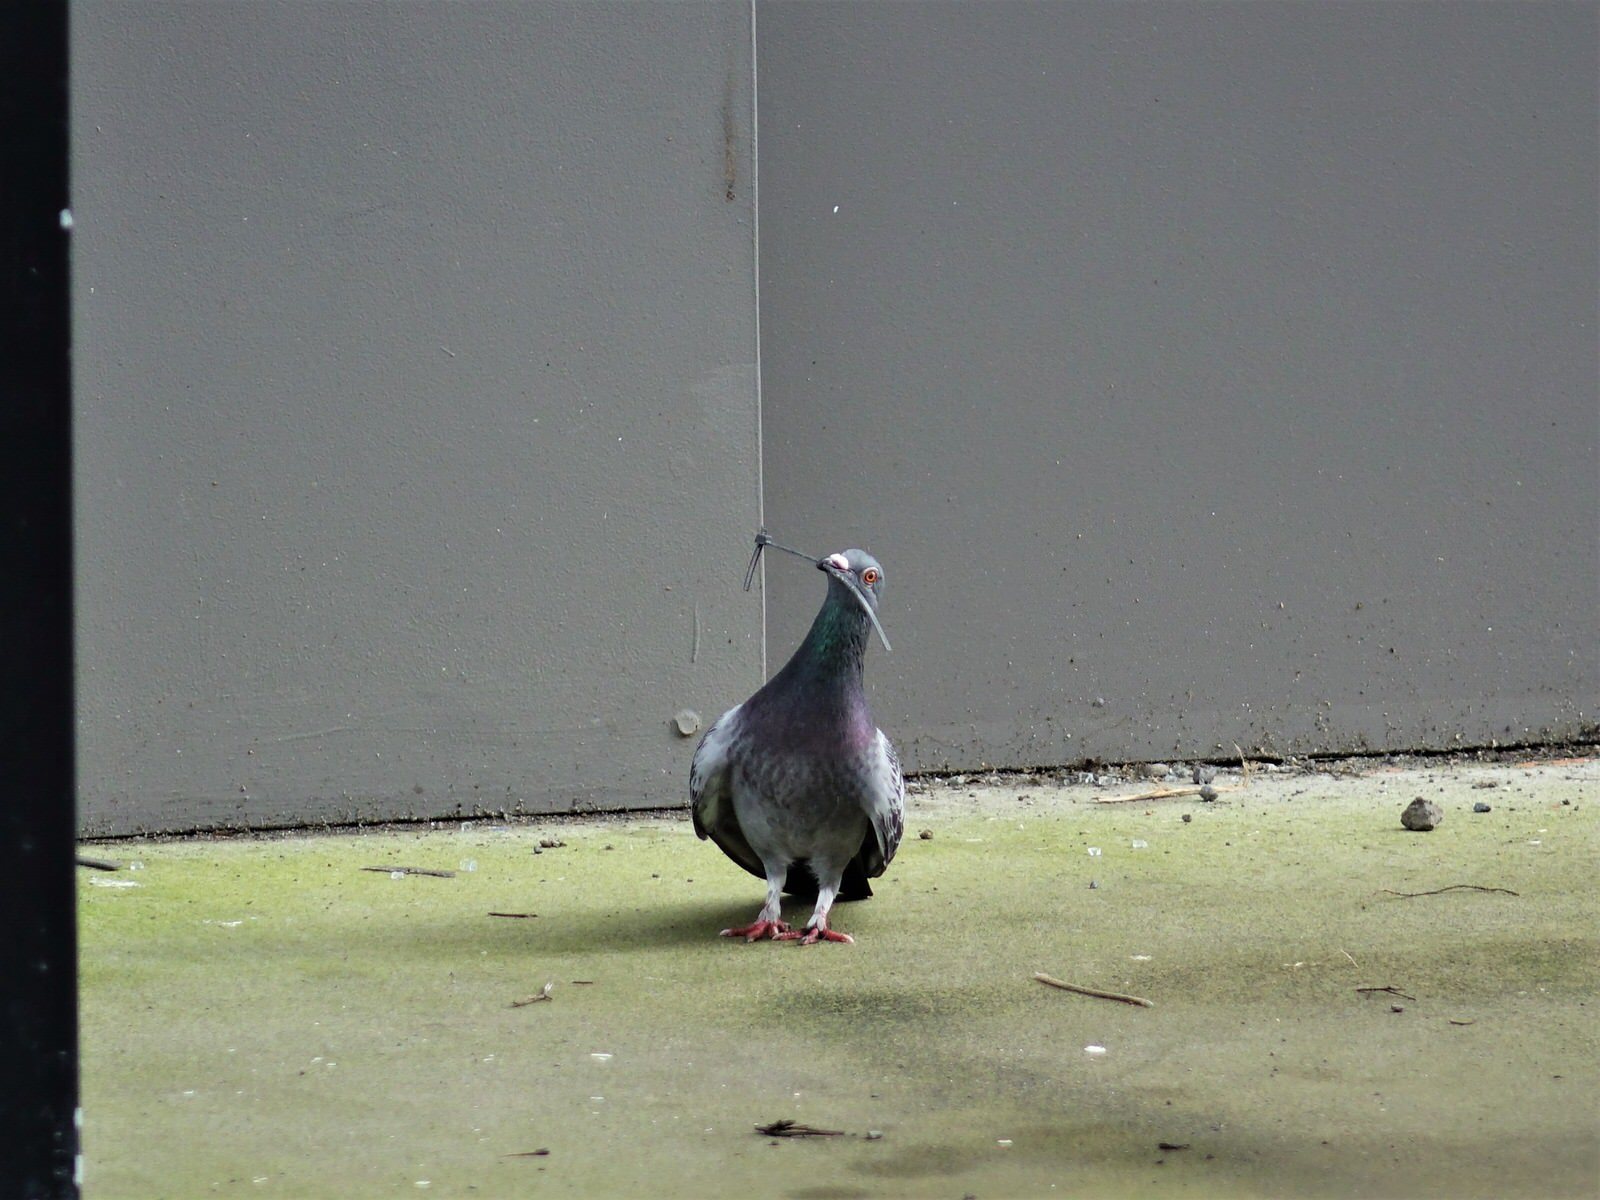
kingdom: Animalia
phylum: Chordata
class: Aves
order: Columbiformes
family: Columbidae
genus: Columba
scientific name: Columba livia
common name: Rock pigeon
